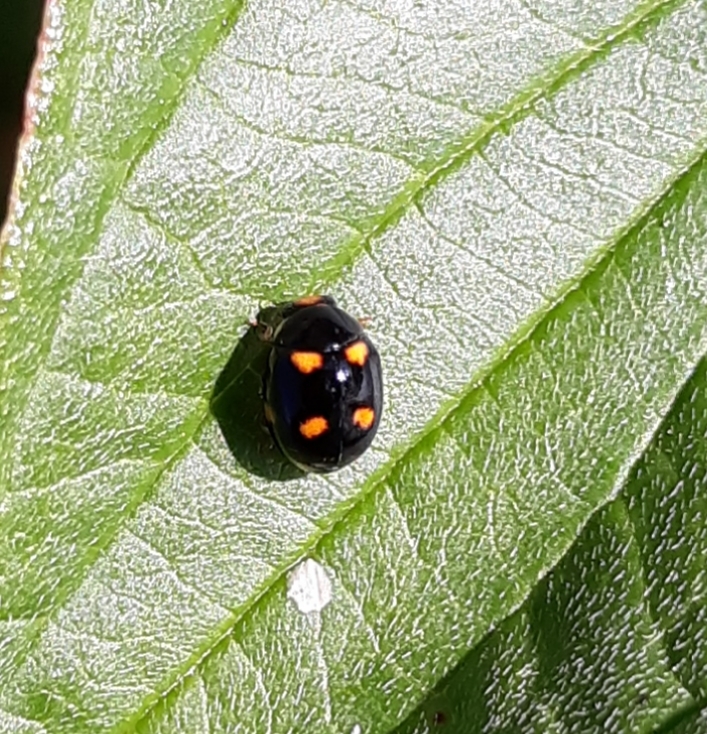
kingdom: Animalia
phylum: Arthropoda
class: Insecta
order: Coleoptera
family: Coccinellidae
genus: Brachiacantha
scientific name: Brachiacantha ursina
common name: Ursine spurleg lady beetle
